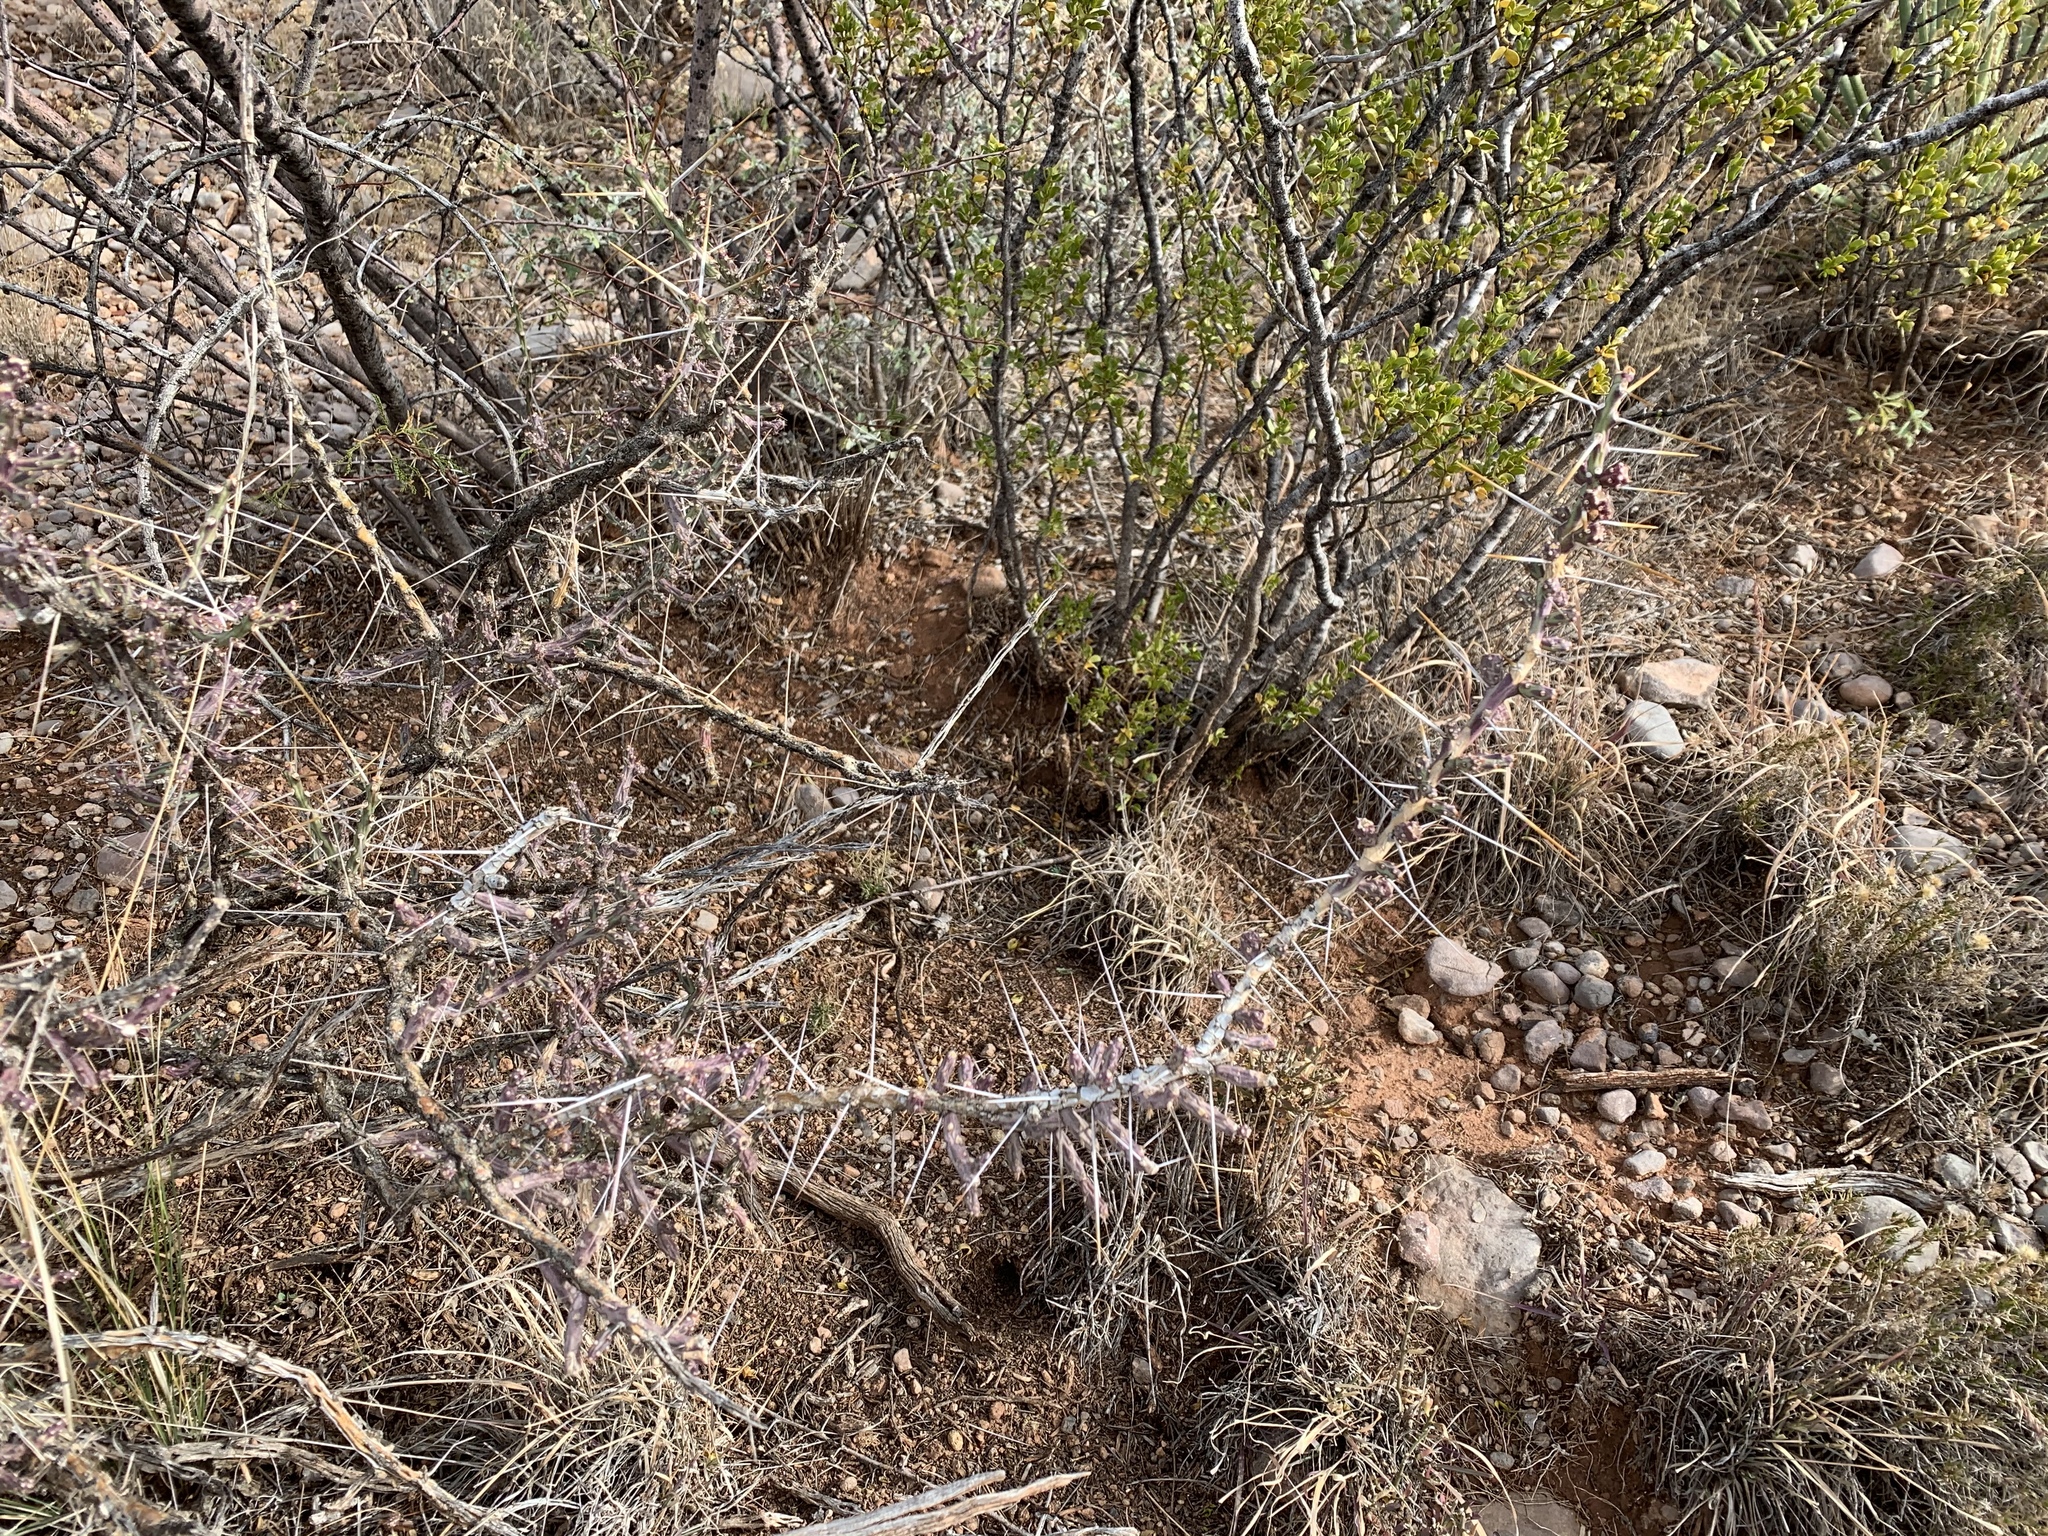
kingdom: Plantae
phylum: Tracheophyta
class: Magnoliopsida
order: Caryophyllales
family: Cactaceae
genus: Cylindropuntia
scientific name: Cylindropuntia leptocaulis
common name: Christmas cactus
